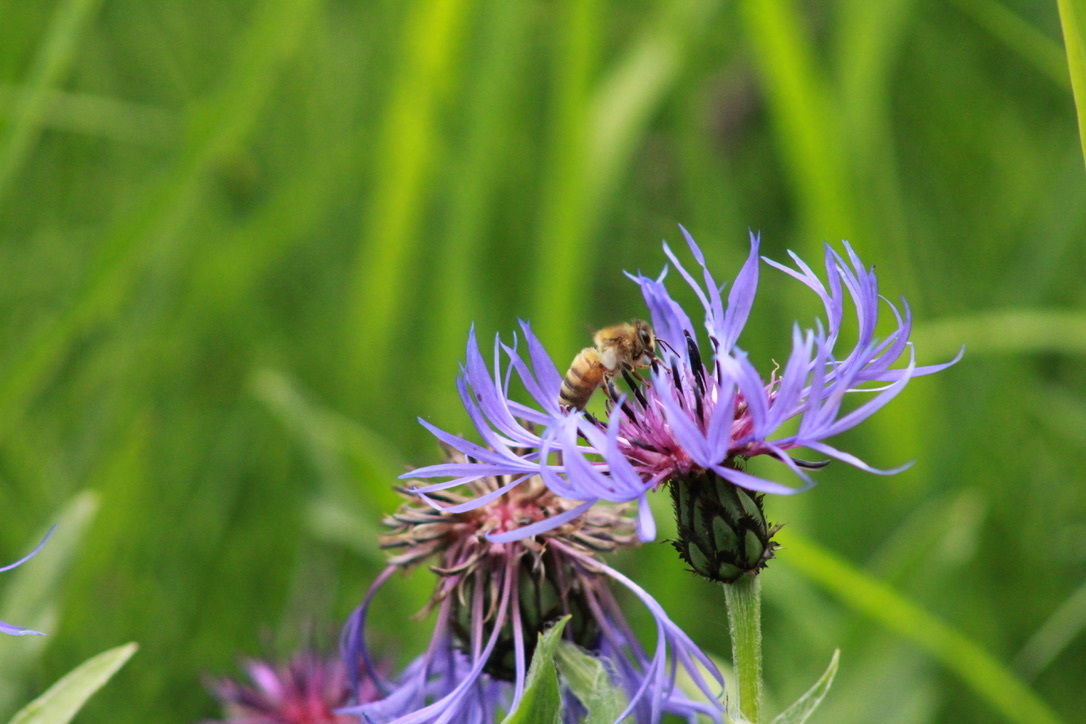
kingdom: Animalia
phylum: Arthropoda
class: Insecta
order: Hymenoptera
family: Apidae
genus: Apis
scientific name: Apis mellifera
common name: Honey bee
